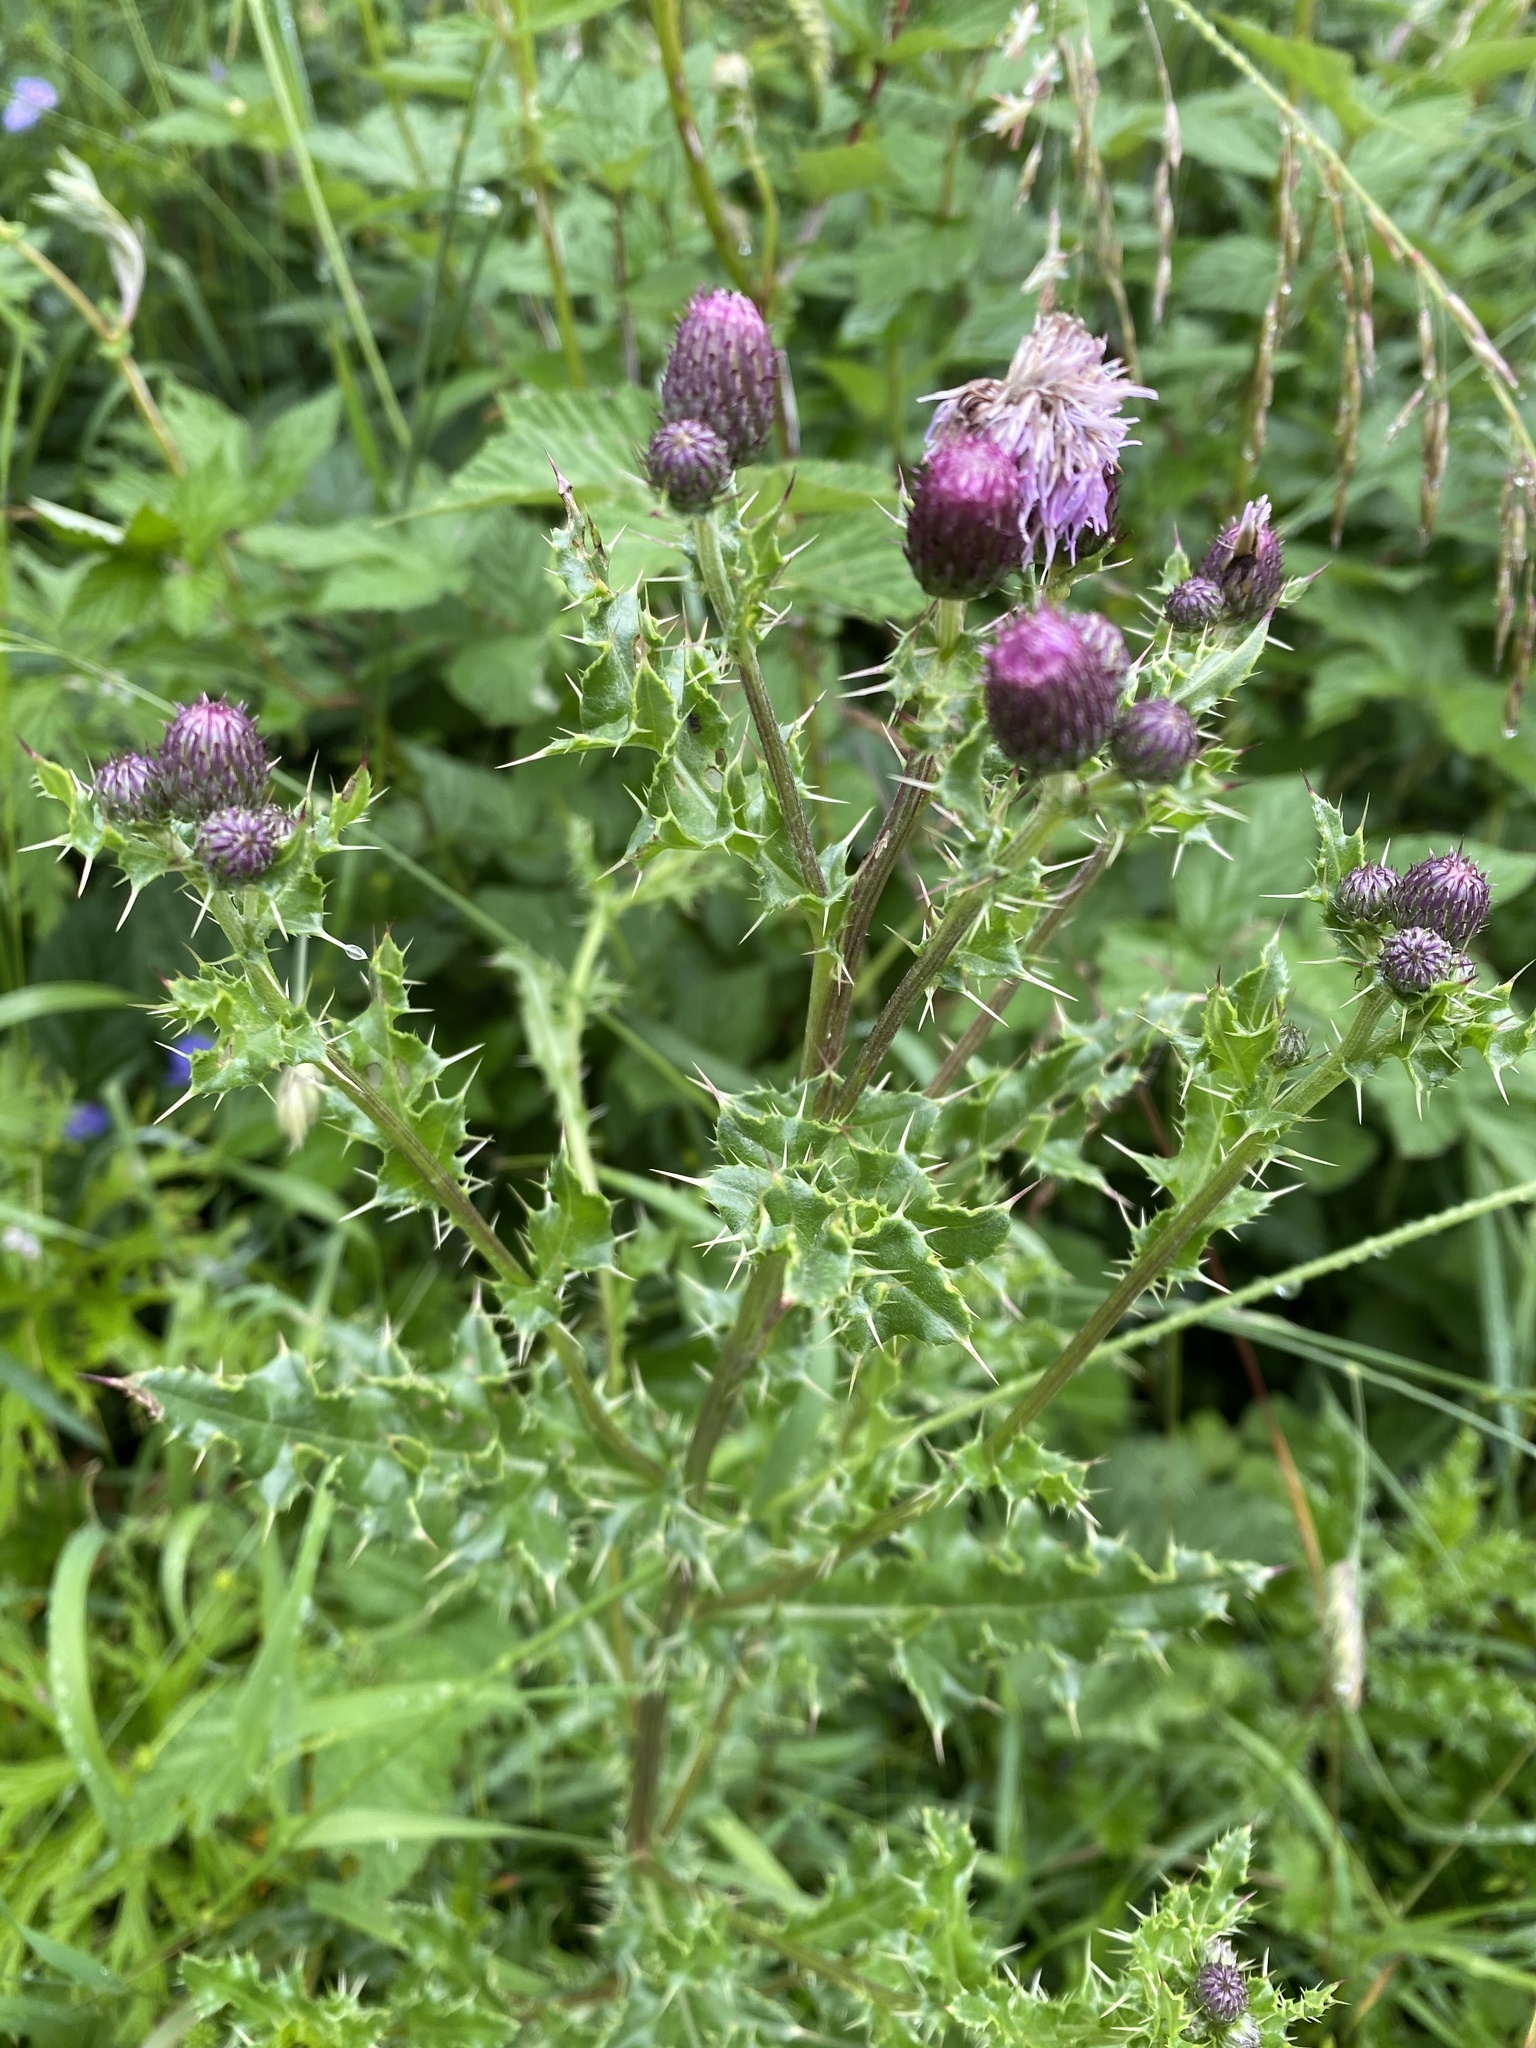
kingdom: Plantae
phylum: Tracheophyta
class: Magnoliopsida
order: Asterales
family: Asteraceae
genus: Cirsium
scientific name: Cirsium arvense
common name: Creeping thistle
